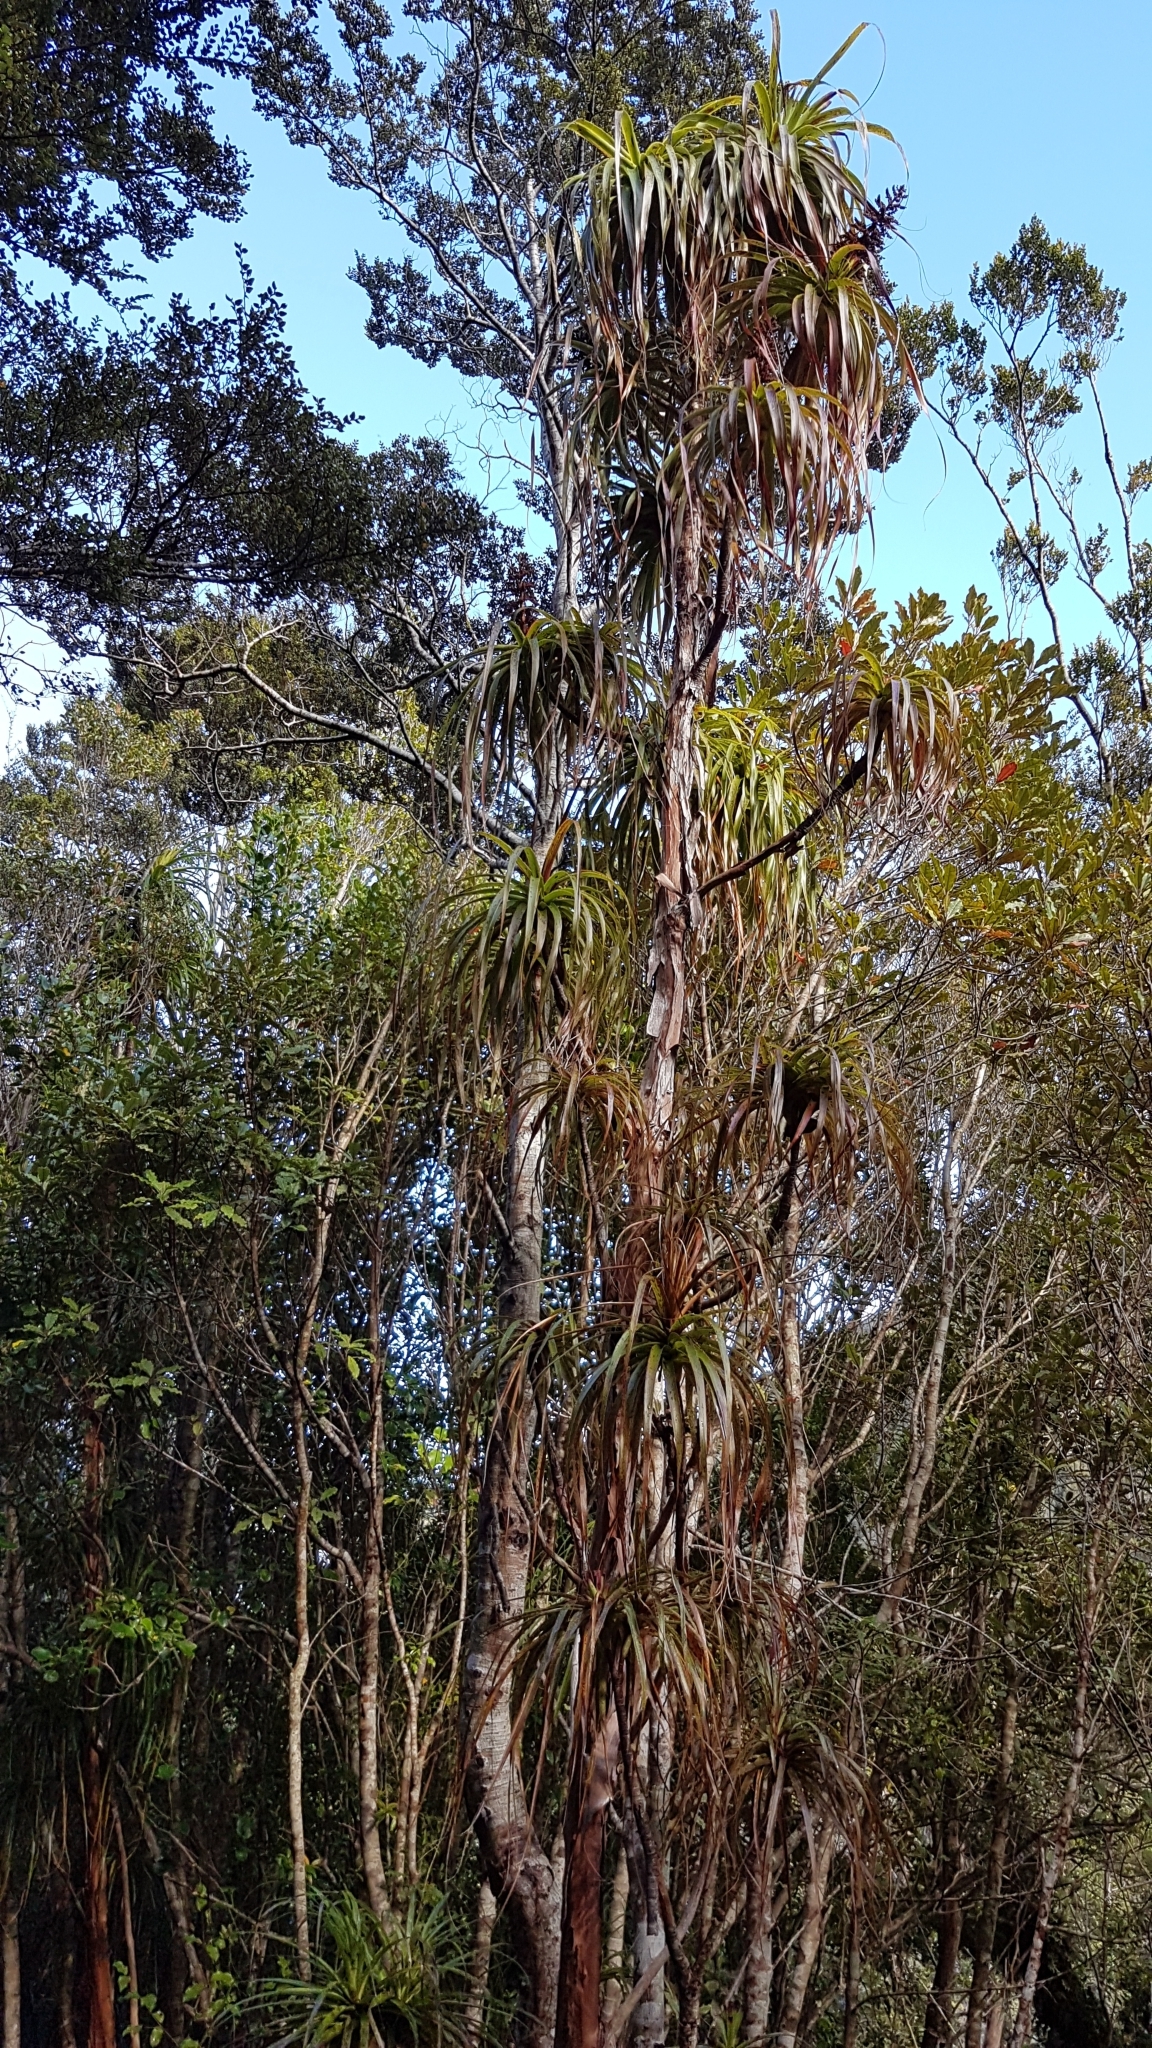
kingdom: Plantae
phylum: Tracheophyta
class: Magnoliopsida
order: Ericales
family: Ericaceae
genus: Dracophyllum
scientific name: Dracophyllum traversii
